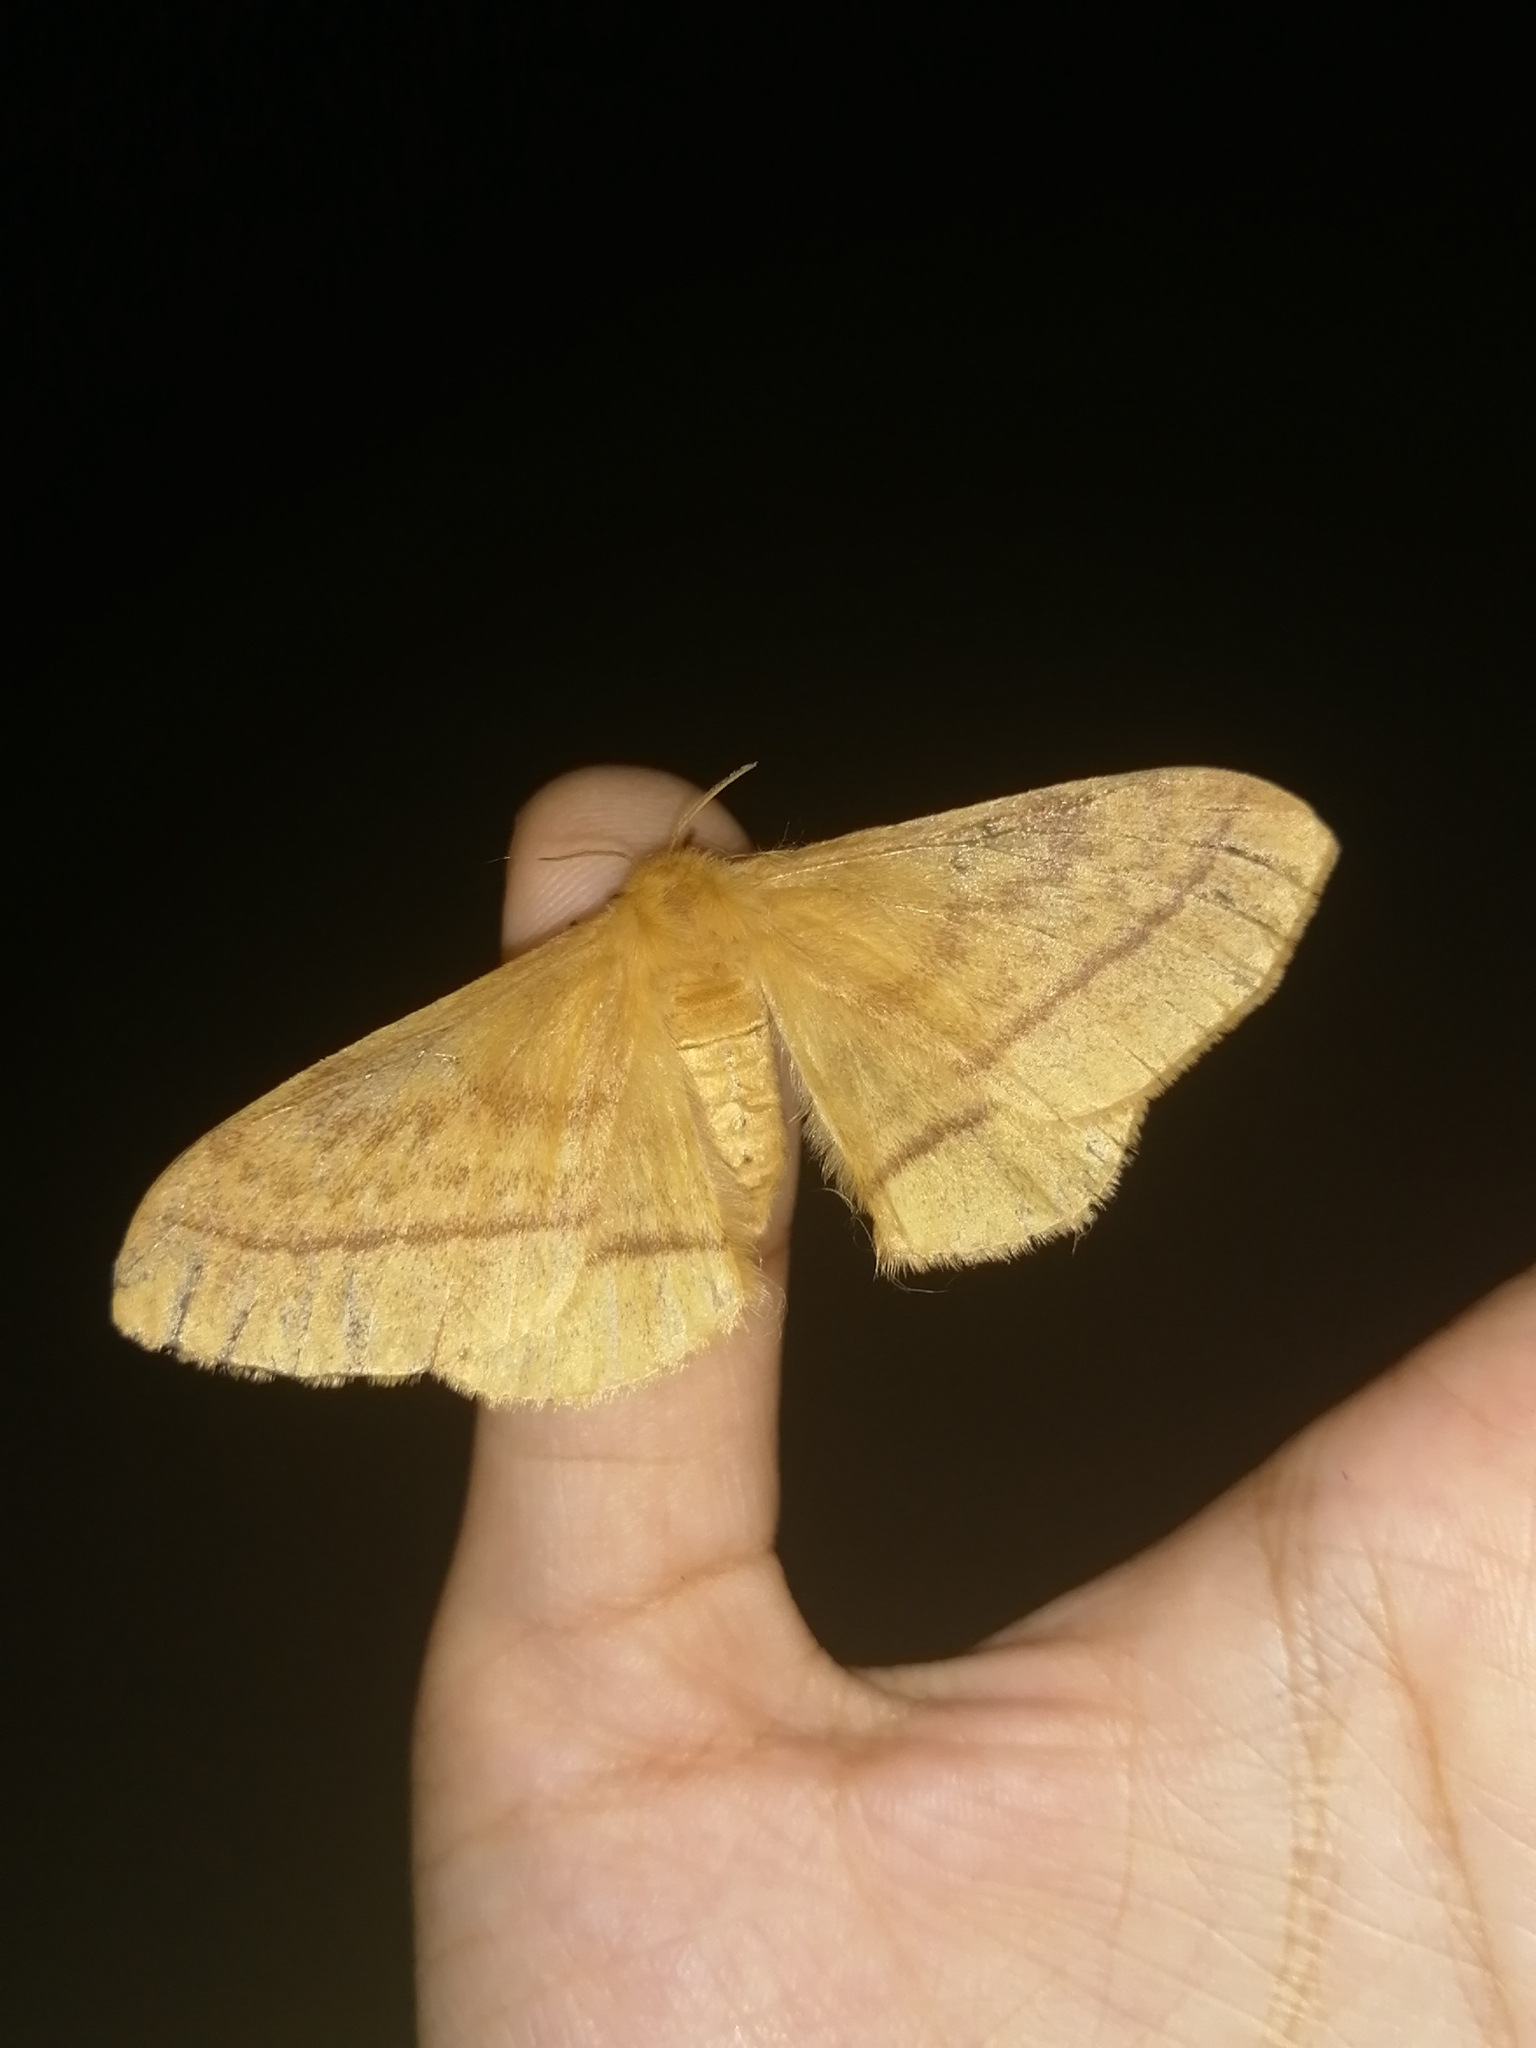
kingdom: Animalia
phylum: Arthropoda
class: Insecta
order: Lepidoptera
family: Eupterotidae
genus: Eupterote
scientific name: Eupterote
